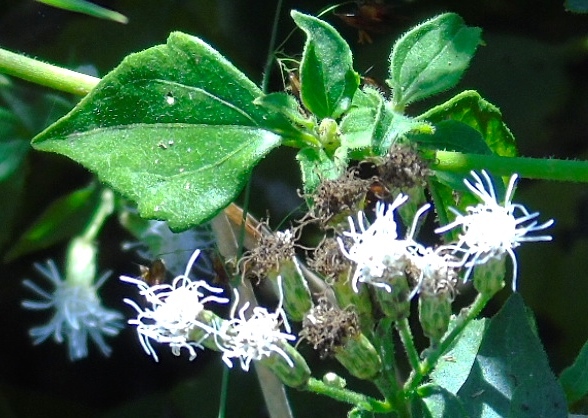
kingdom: Plantae
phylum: Tracheophyta
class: Magnoliopsida
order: Asterales
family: Asteraceae
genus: Chromolaena
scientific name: Chromolaena odorata
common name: Siamweed
